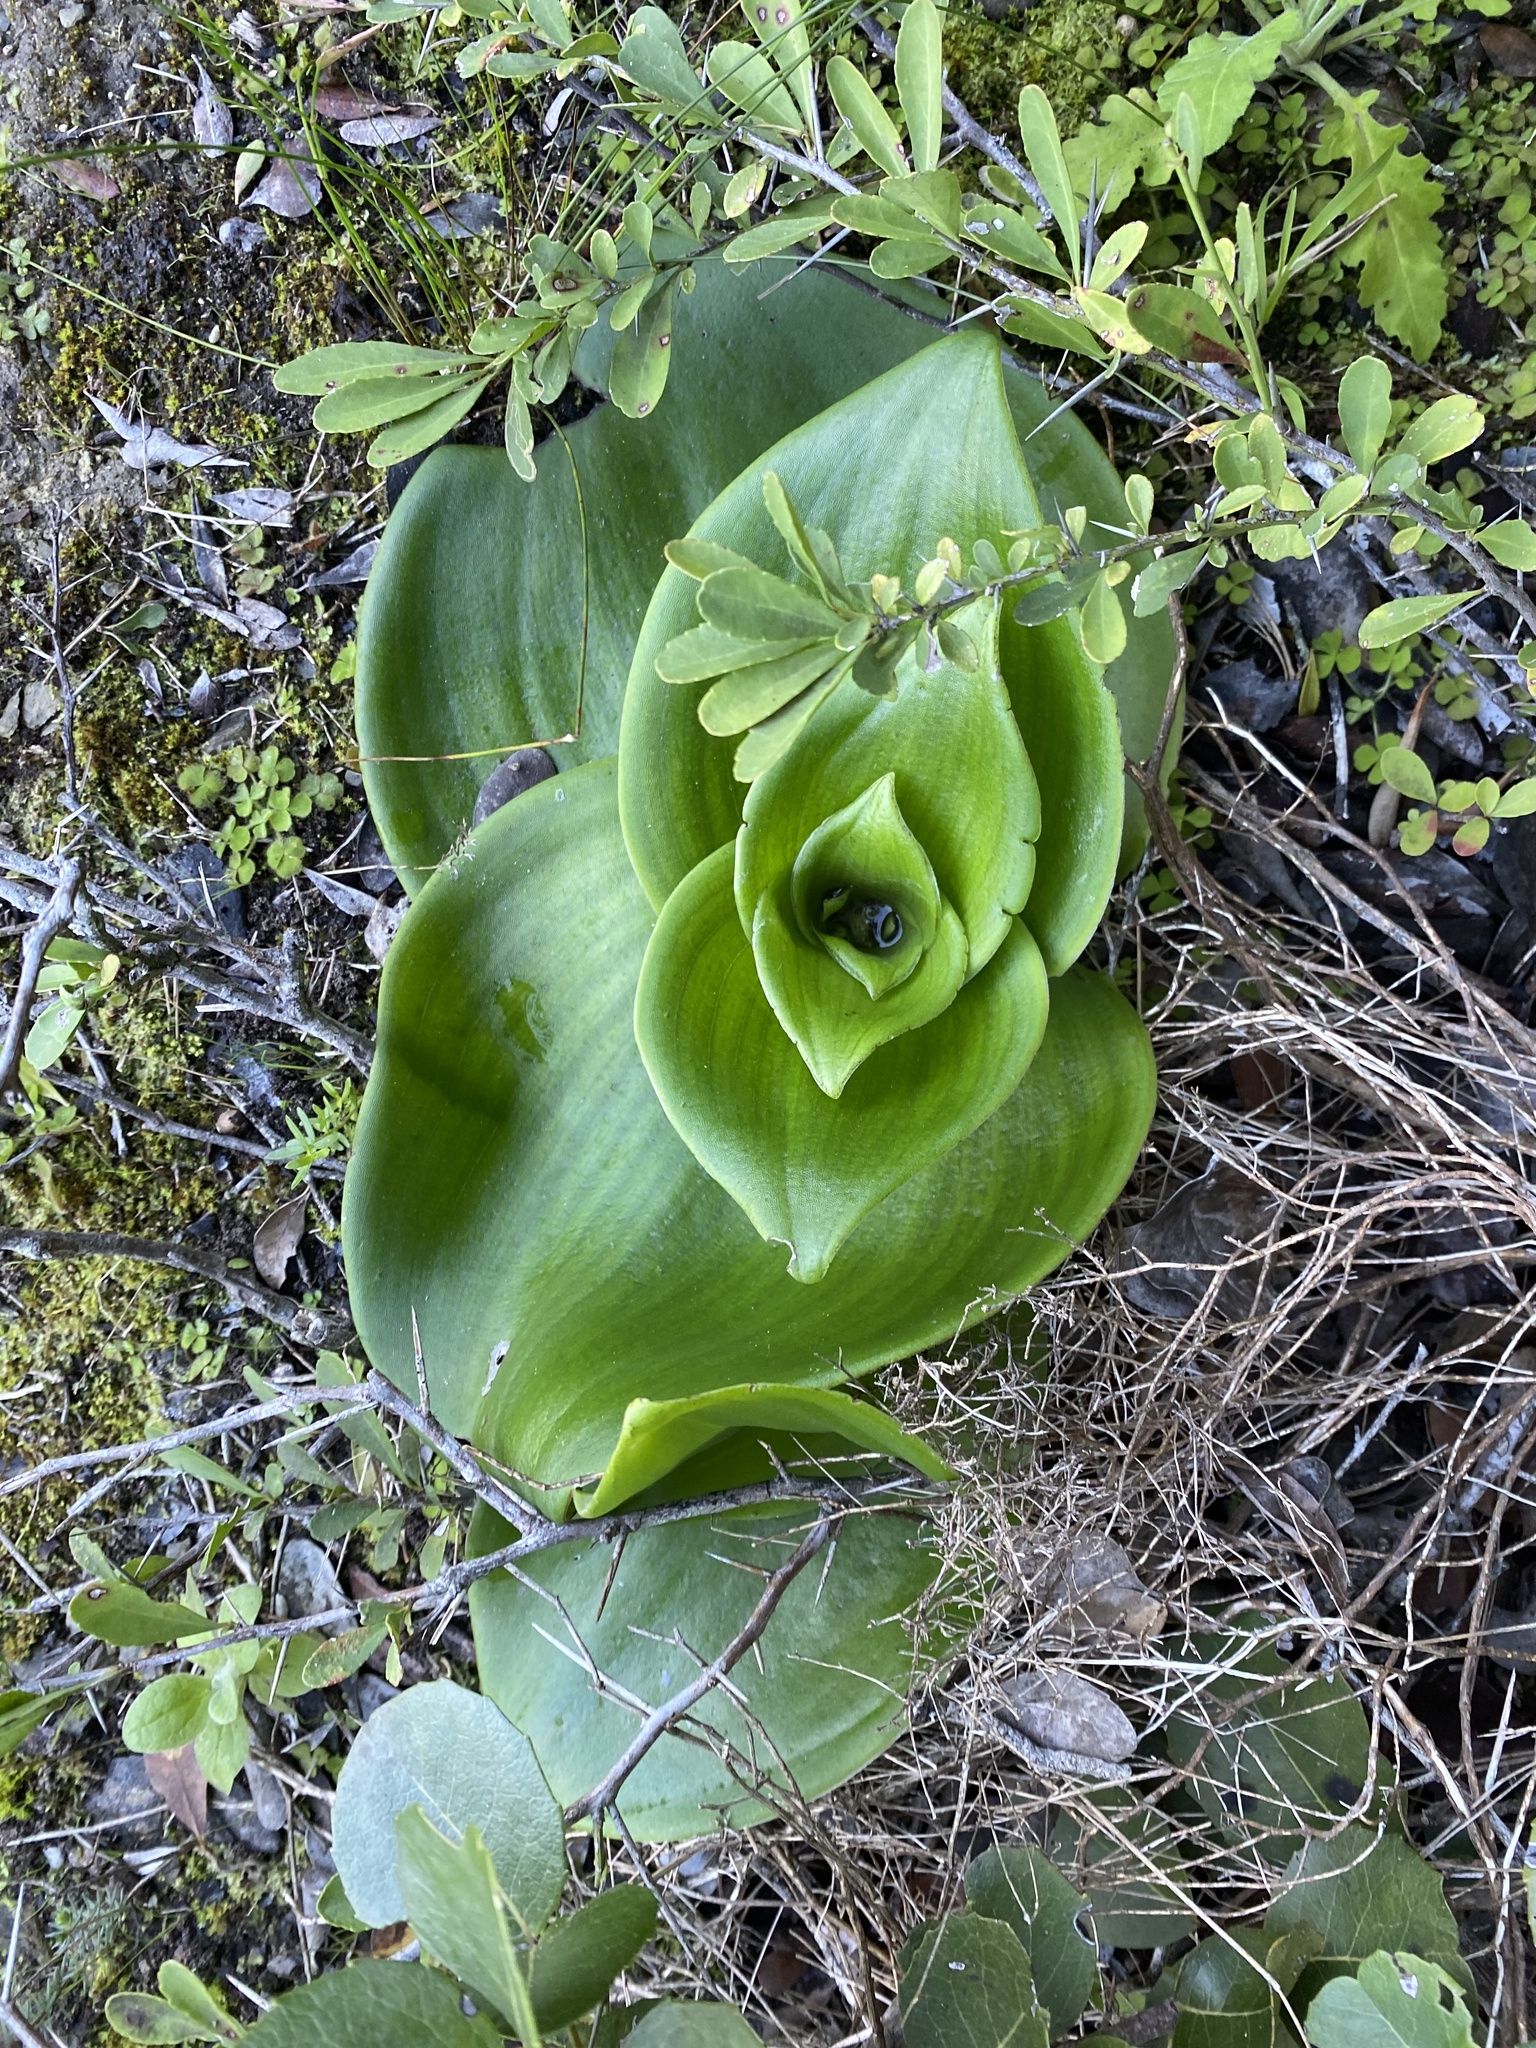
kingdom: Plantae
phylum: Tracheophyta
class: Liliopsida
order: Asparagales
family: Orchidaceae
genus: Satyrium
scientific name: Satyrium carneum
